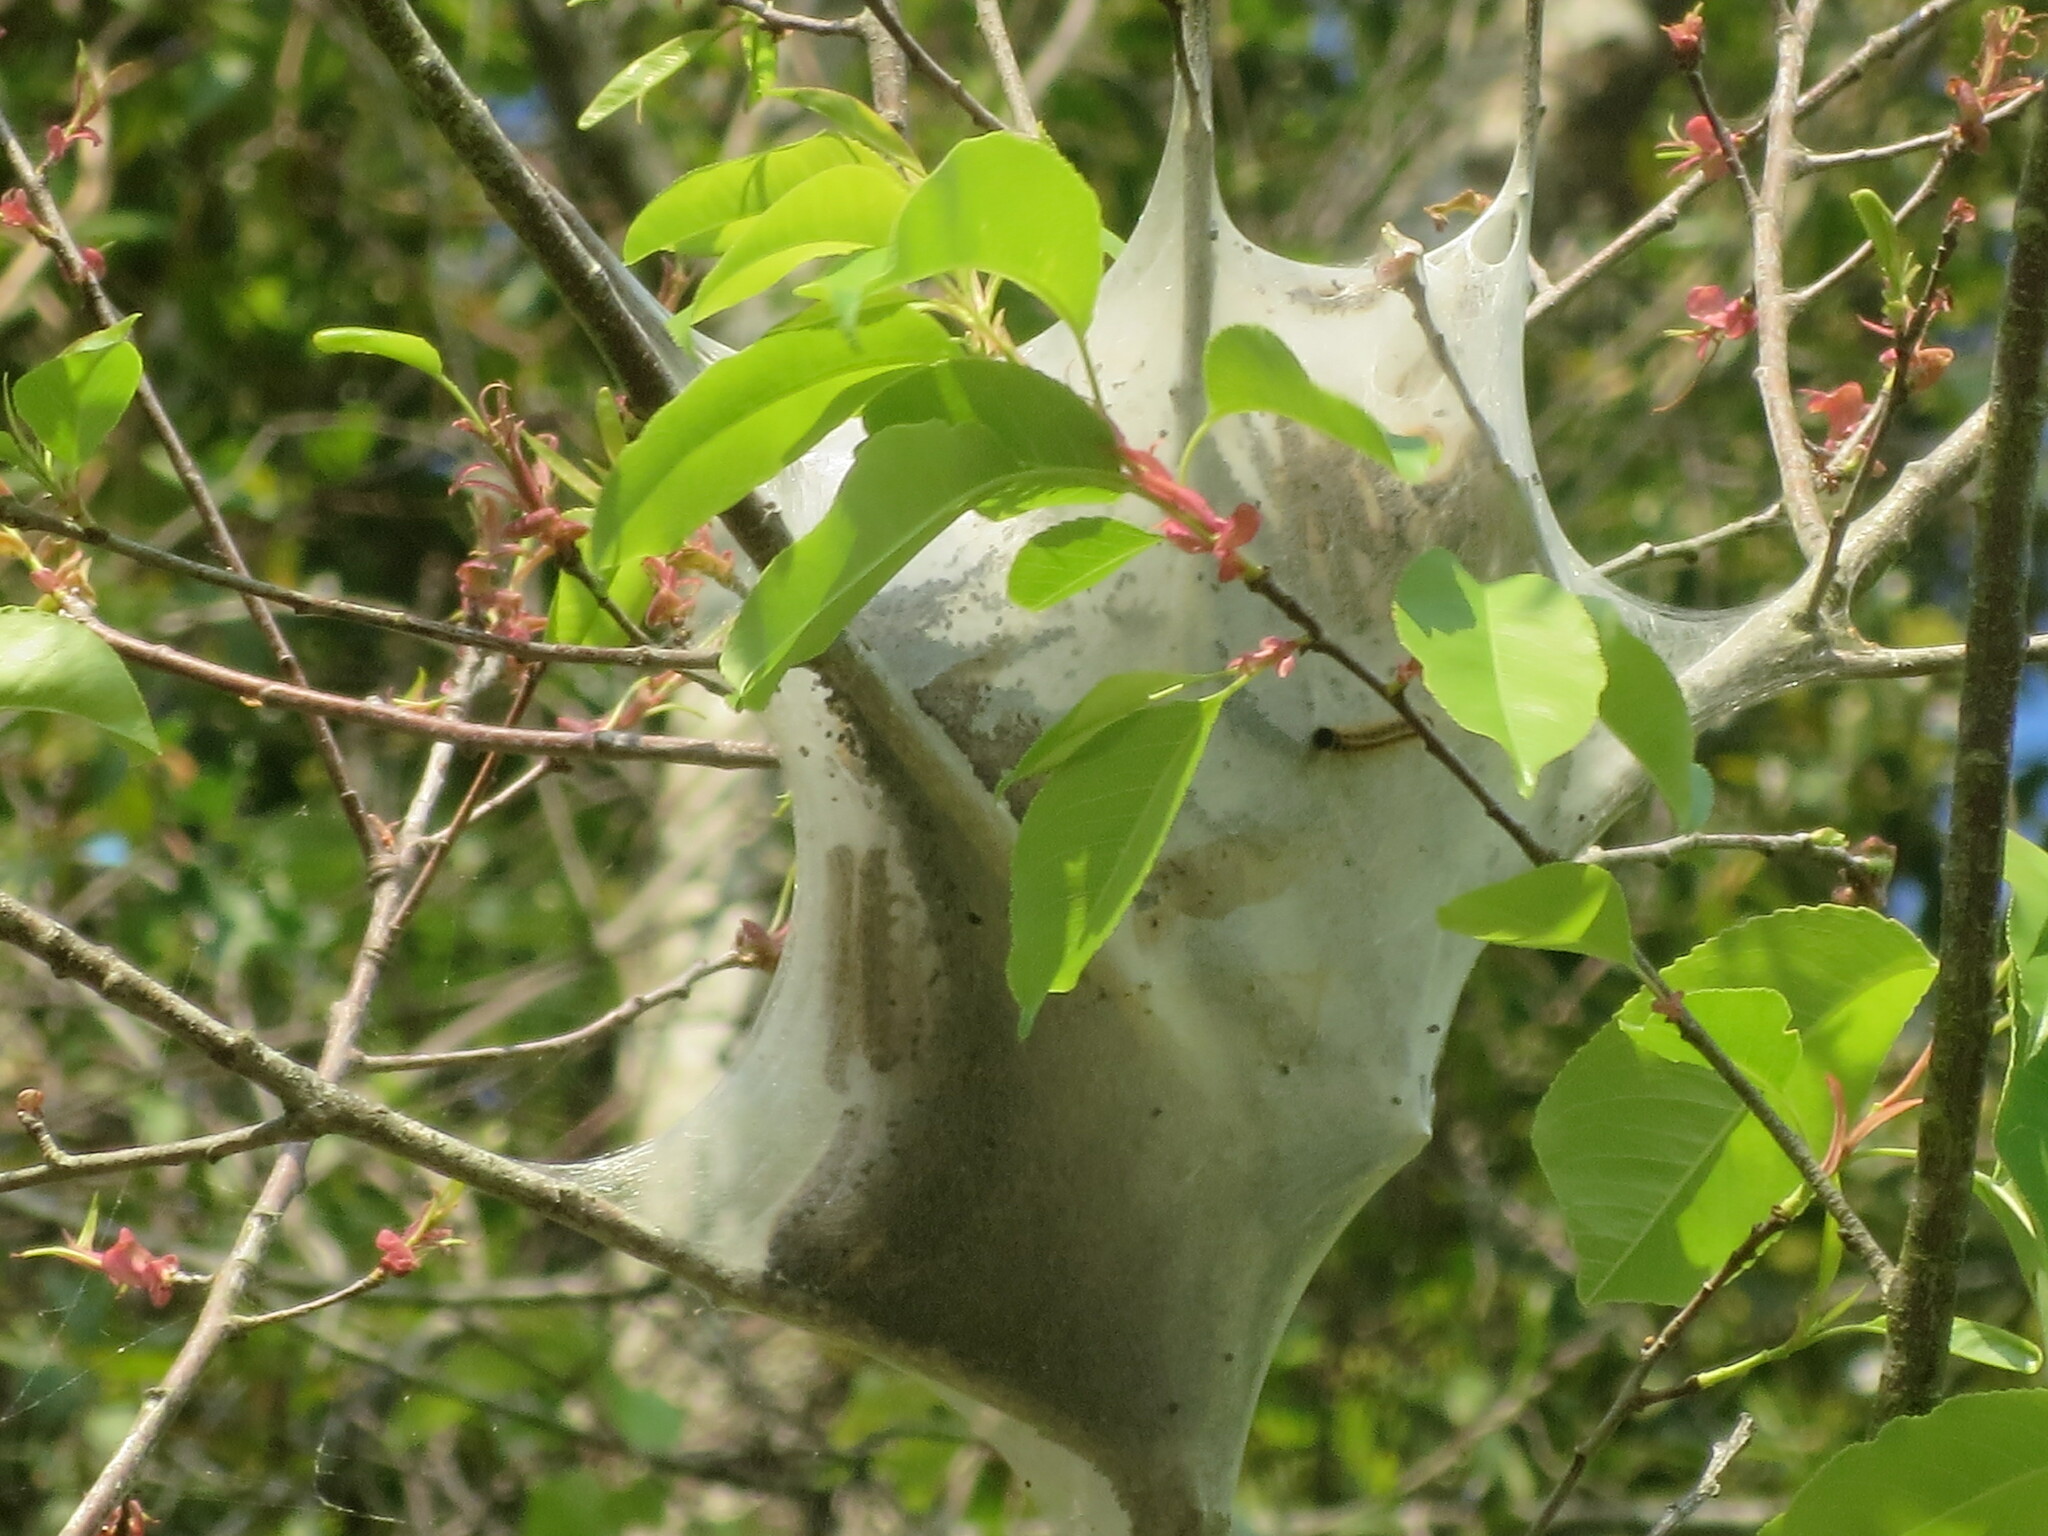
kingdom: Animalia
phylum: Arthropoda
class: Insecta
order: Lepidoptera
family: Lasiocampidae
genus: Malacosoma
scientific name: Malacosoma americana
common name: Eastern tent caterpillar moth
